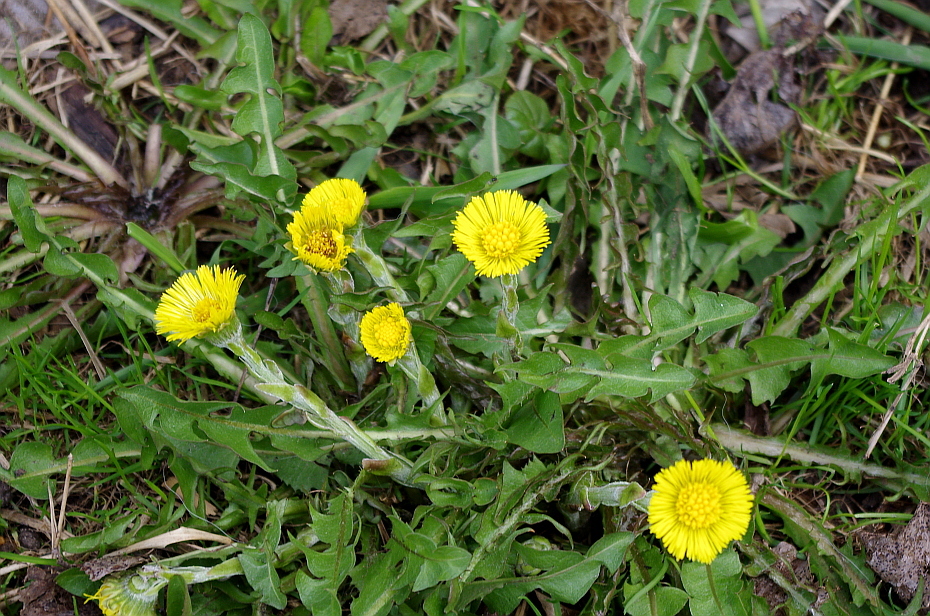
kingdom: Plantae
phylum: Tracheophyta
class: Magnoliopsida
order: Asterales
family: Asteraceae
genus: Tussilago
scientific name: Tussilago farfara
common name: Coltsfoot
